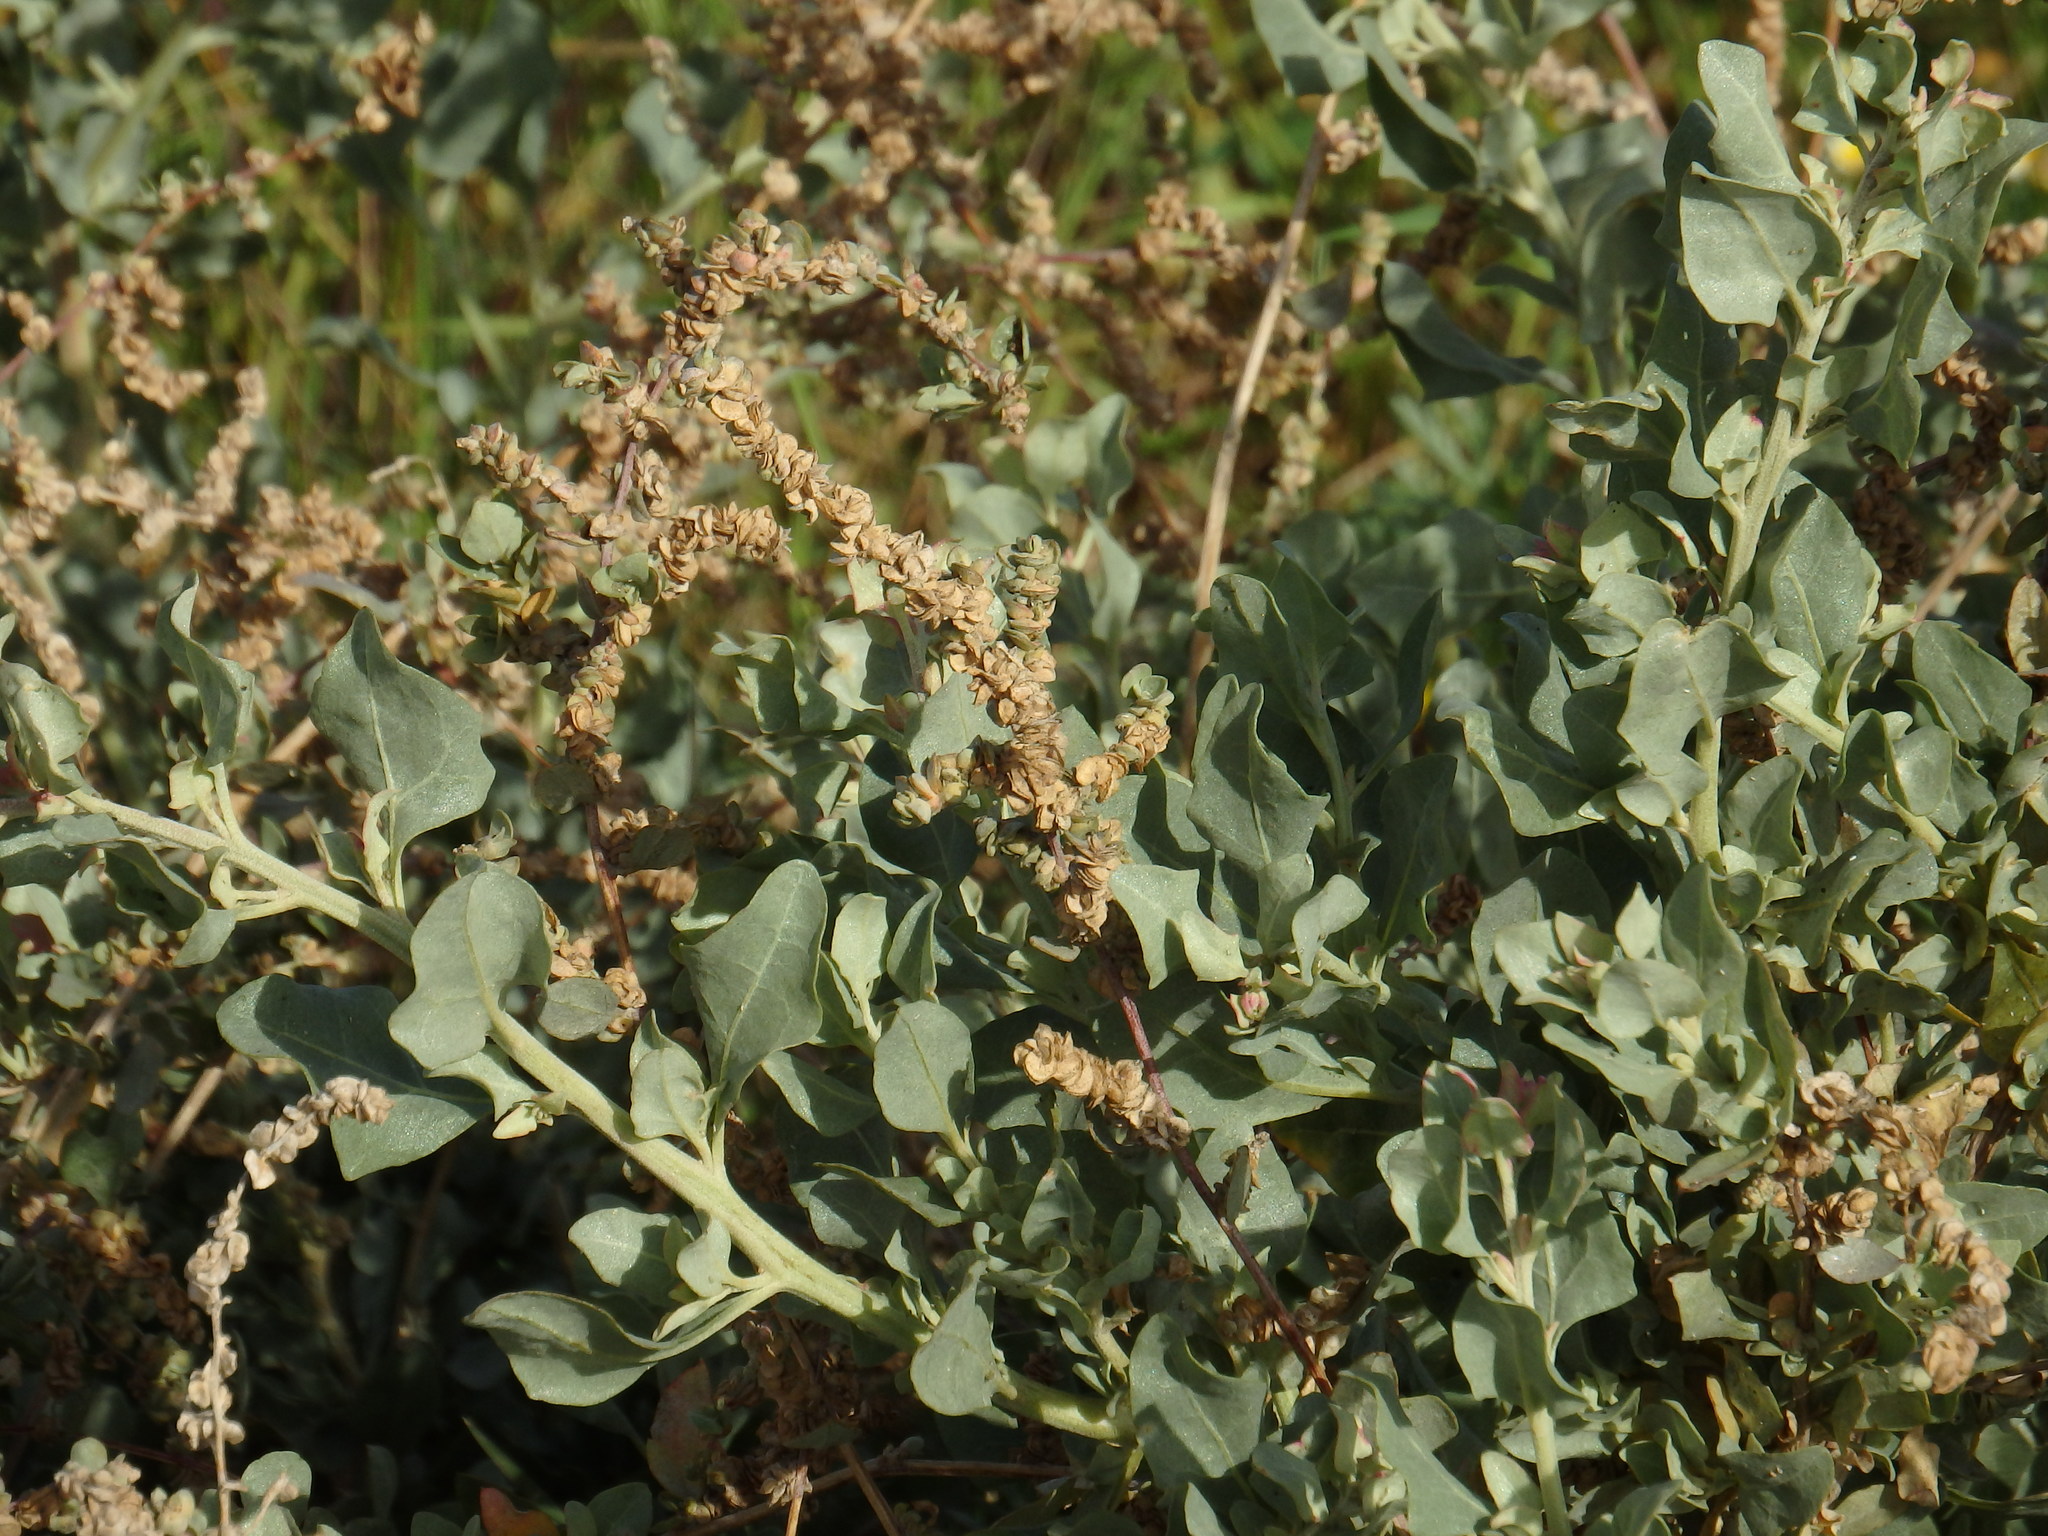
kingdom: Plantae
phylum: Tracheophyta
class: Magnoliopsida
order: Caryophyllales
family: Amaranthaceae
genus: Atriplex
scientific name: Atriplex halimus
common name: Shrubby orache
